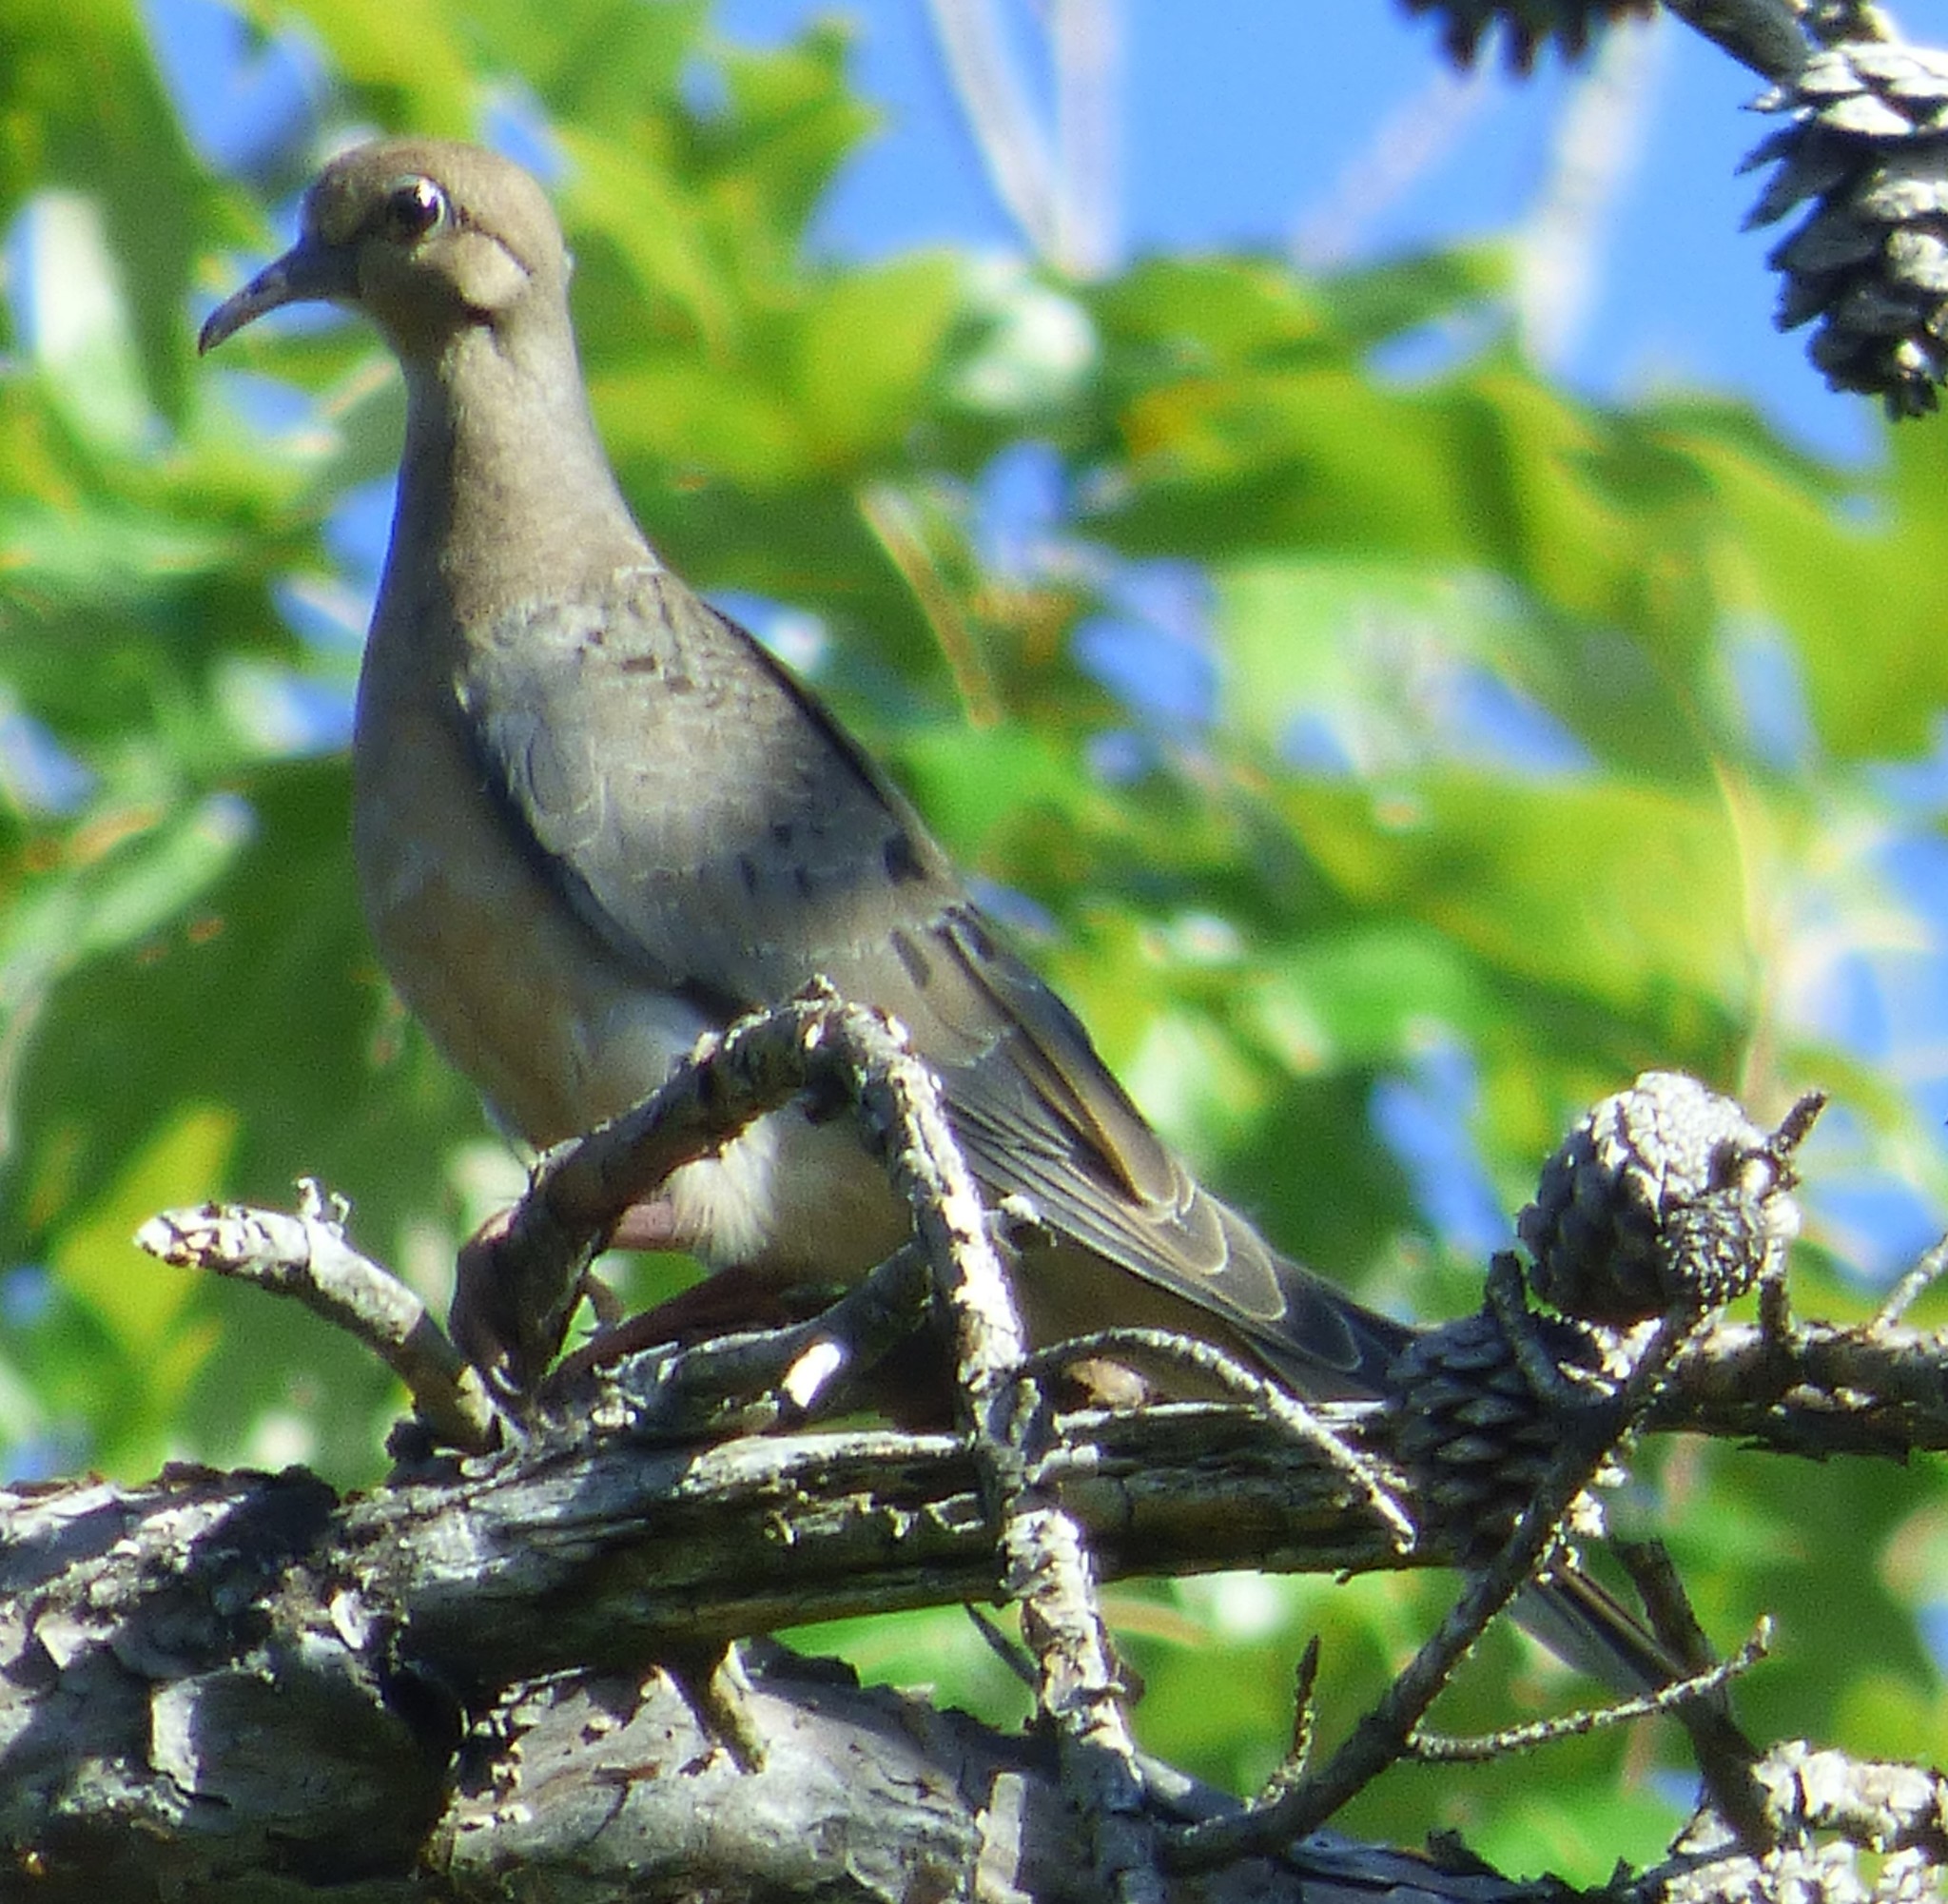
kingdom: Animalia
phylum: Chordata
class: Aves
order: Columbiformes
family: Columbidae
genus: Zenaida
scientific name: Zenaida macroura
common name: Mourning dove
